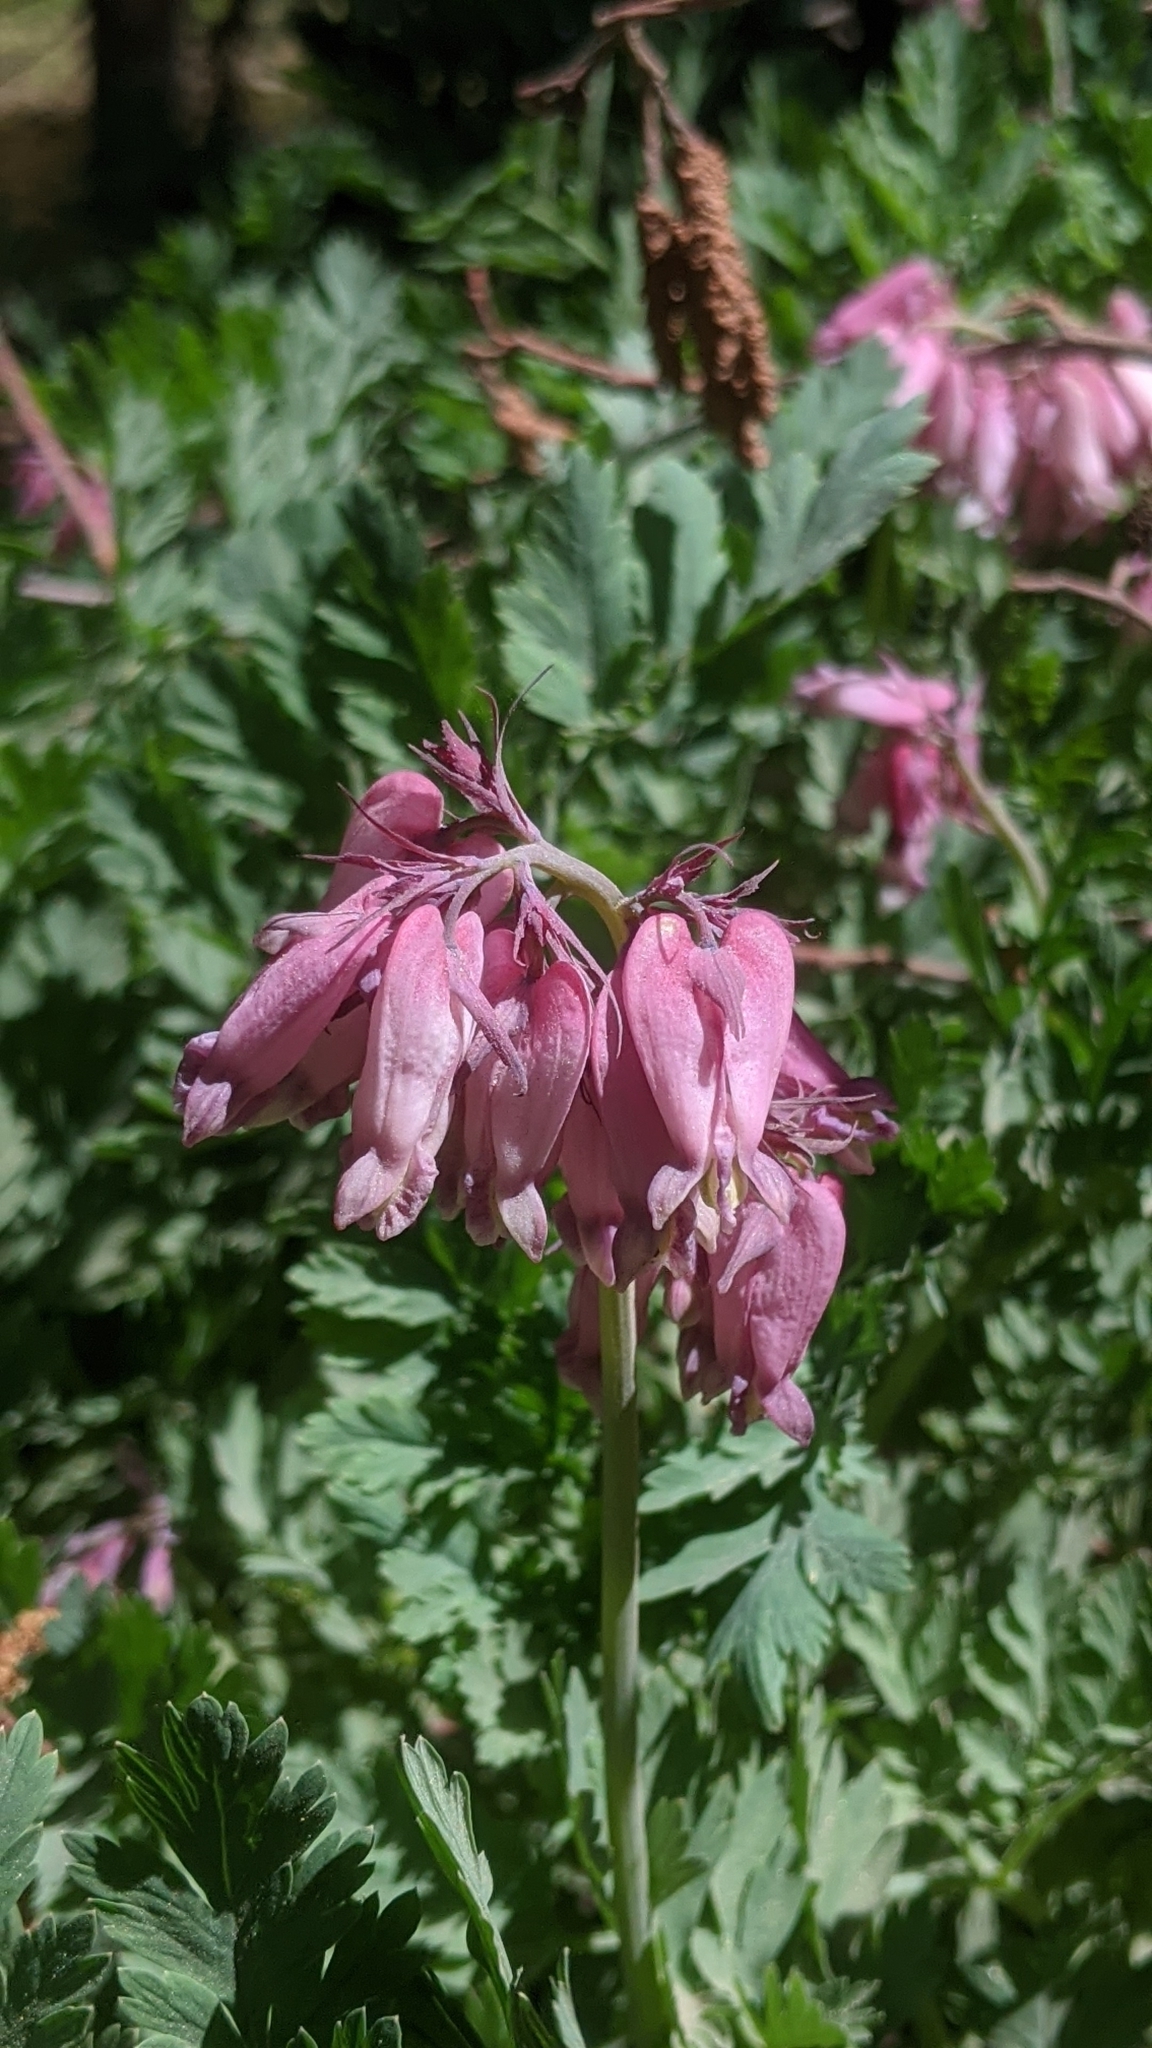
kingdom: Plantae
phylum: Tracheophyta
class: Magnoliopsida
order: Ranunculales
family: Papaveraceae
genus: Dicentra
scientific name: Dicentra formosa
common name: Bleeding-heart
